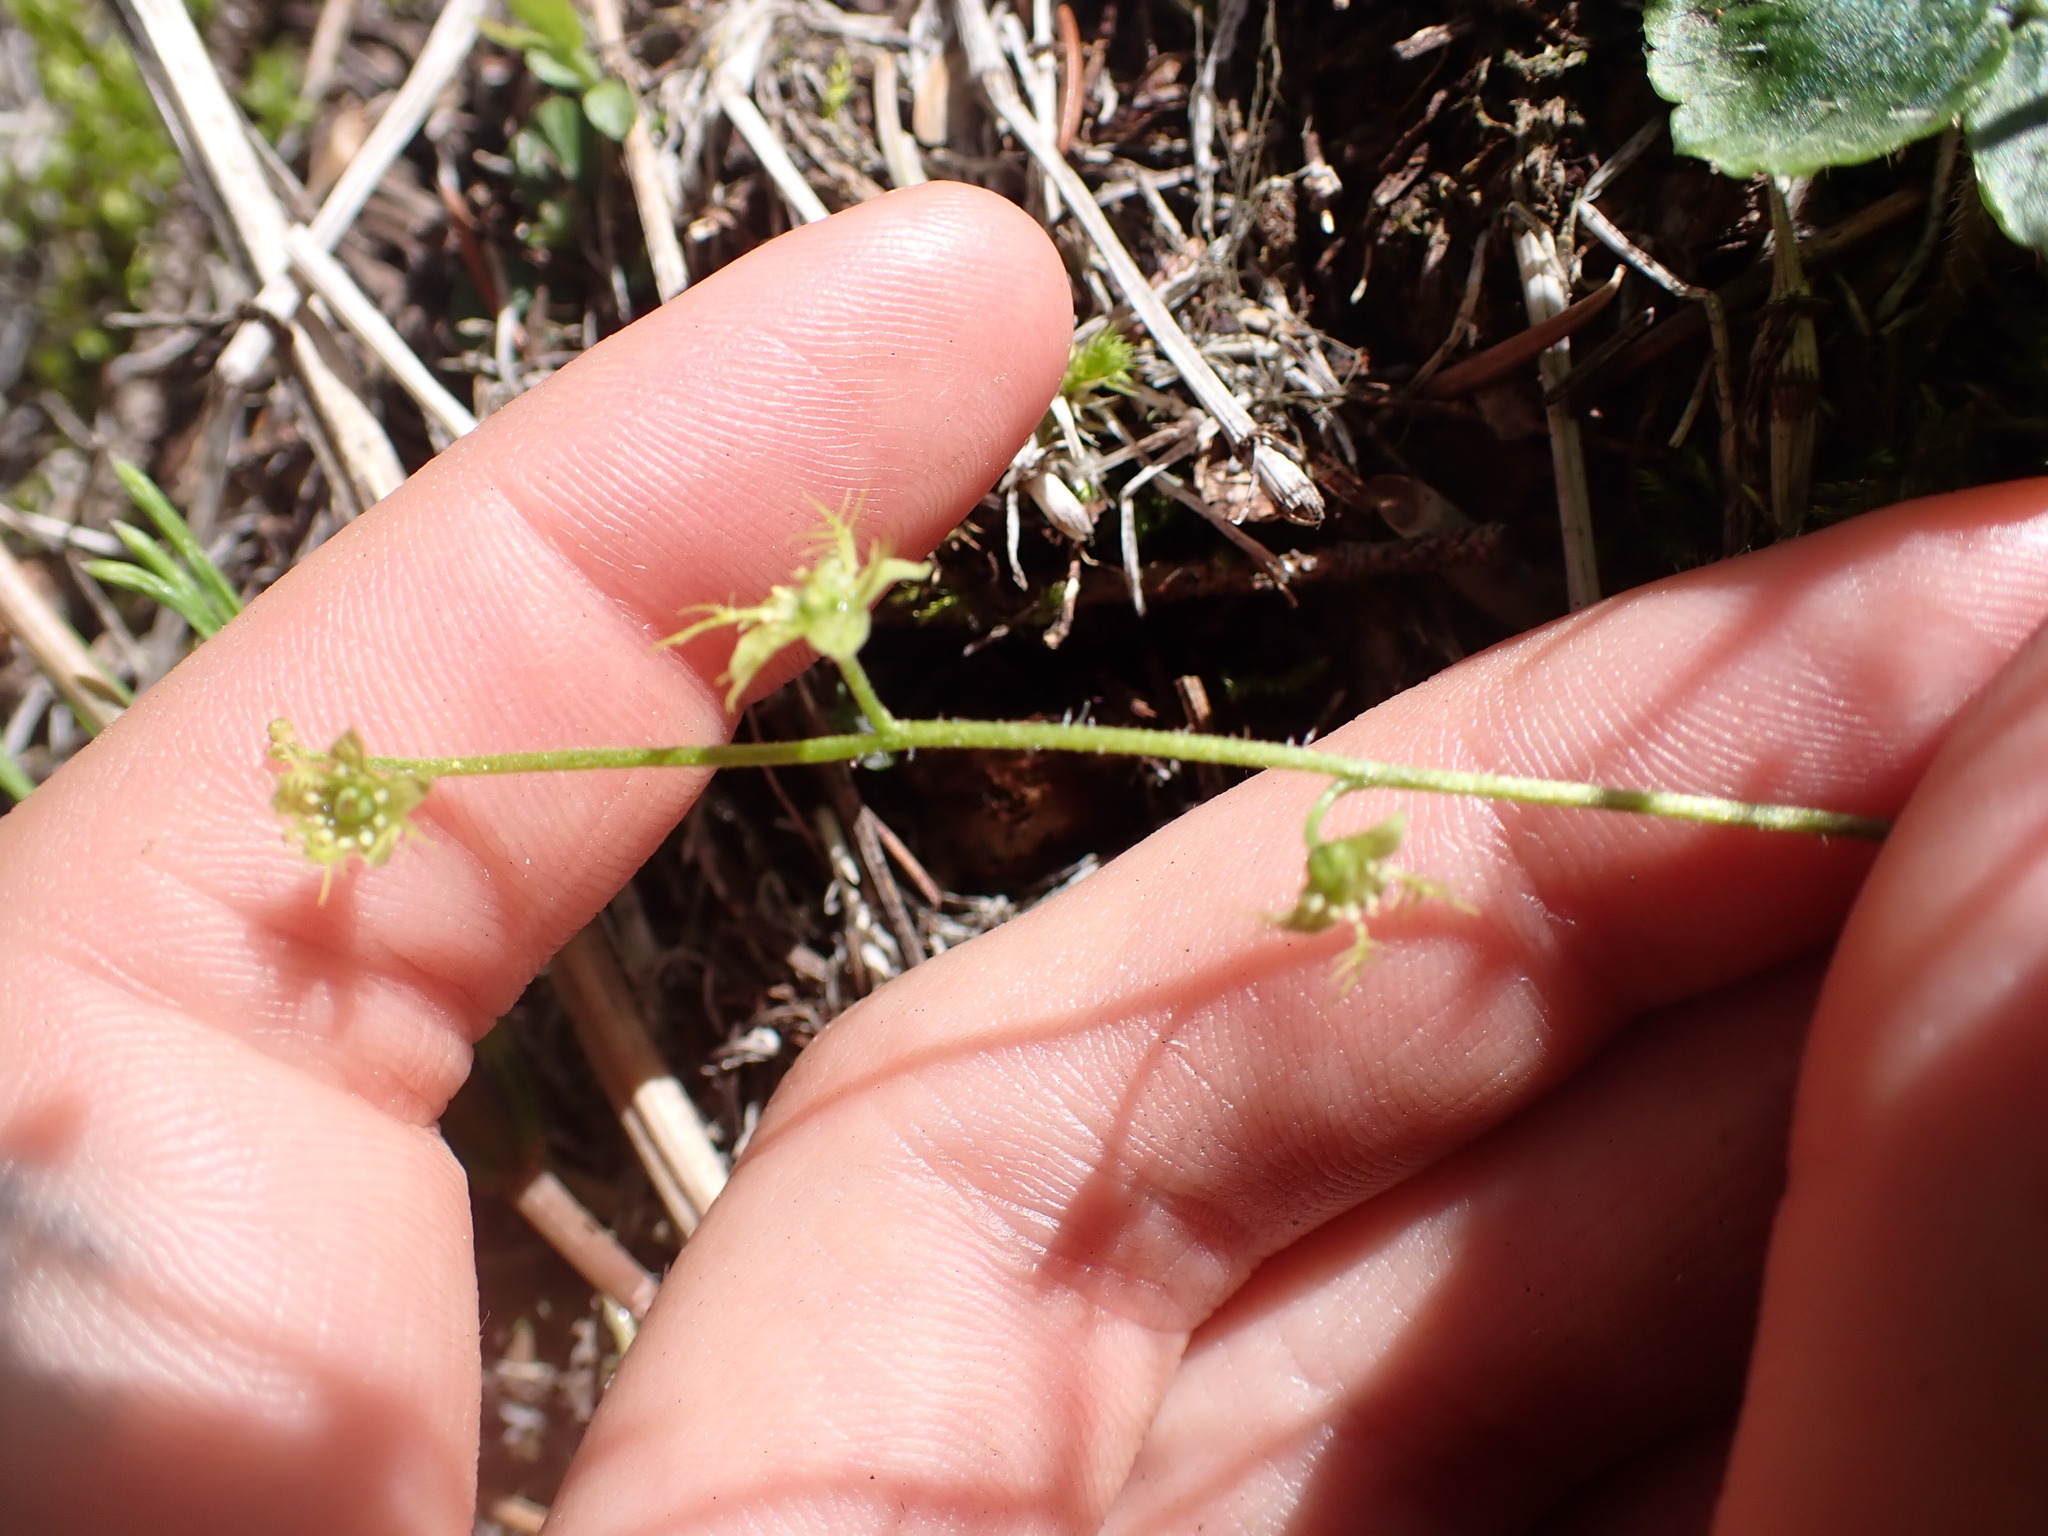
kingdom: Plantae
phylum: Tracheophyta
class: Magnoliopsida
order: Saxifragales
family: Saxifragaceae
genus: Mitella
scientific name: Mitella nuda
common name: Bare-stemmed bishop's-cap
